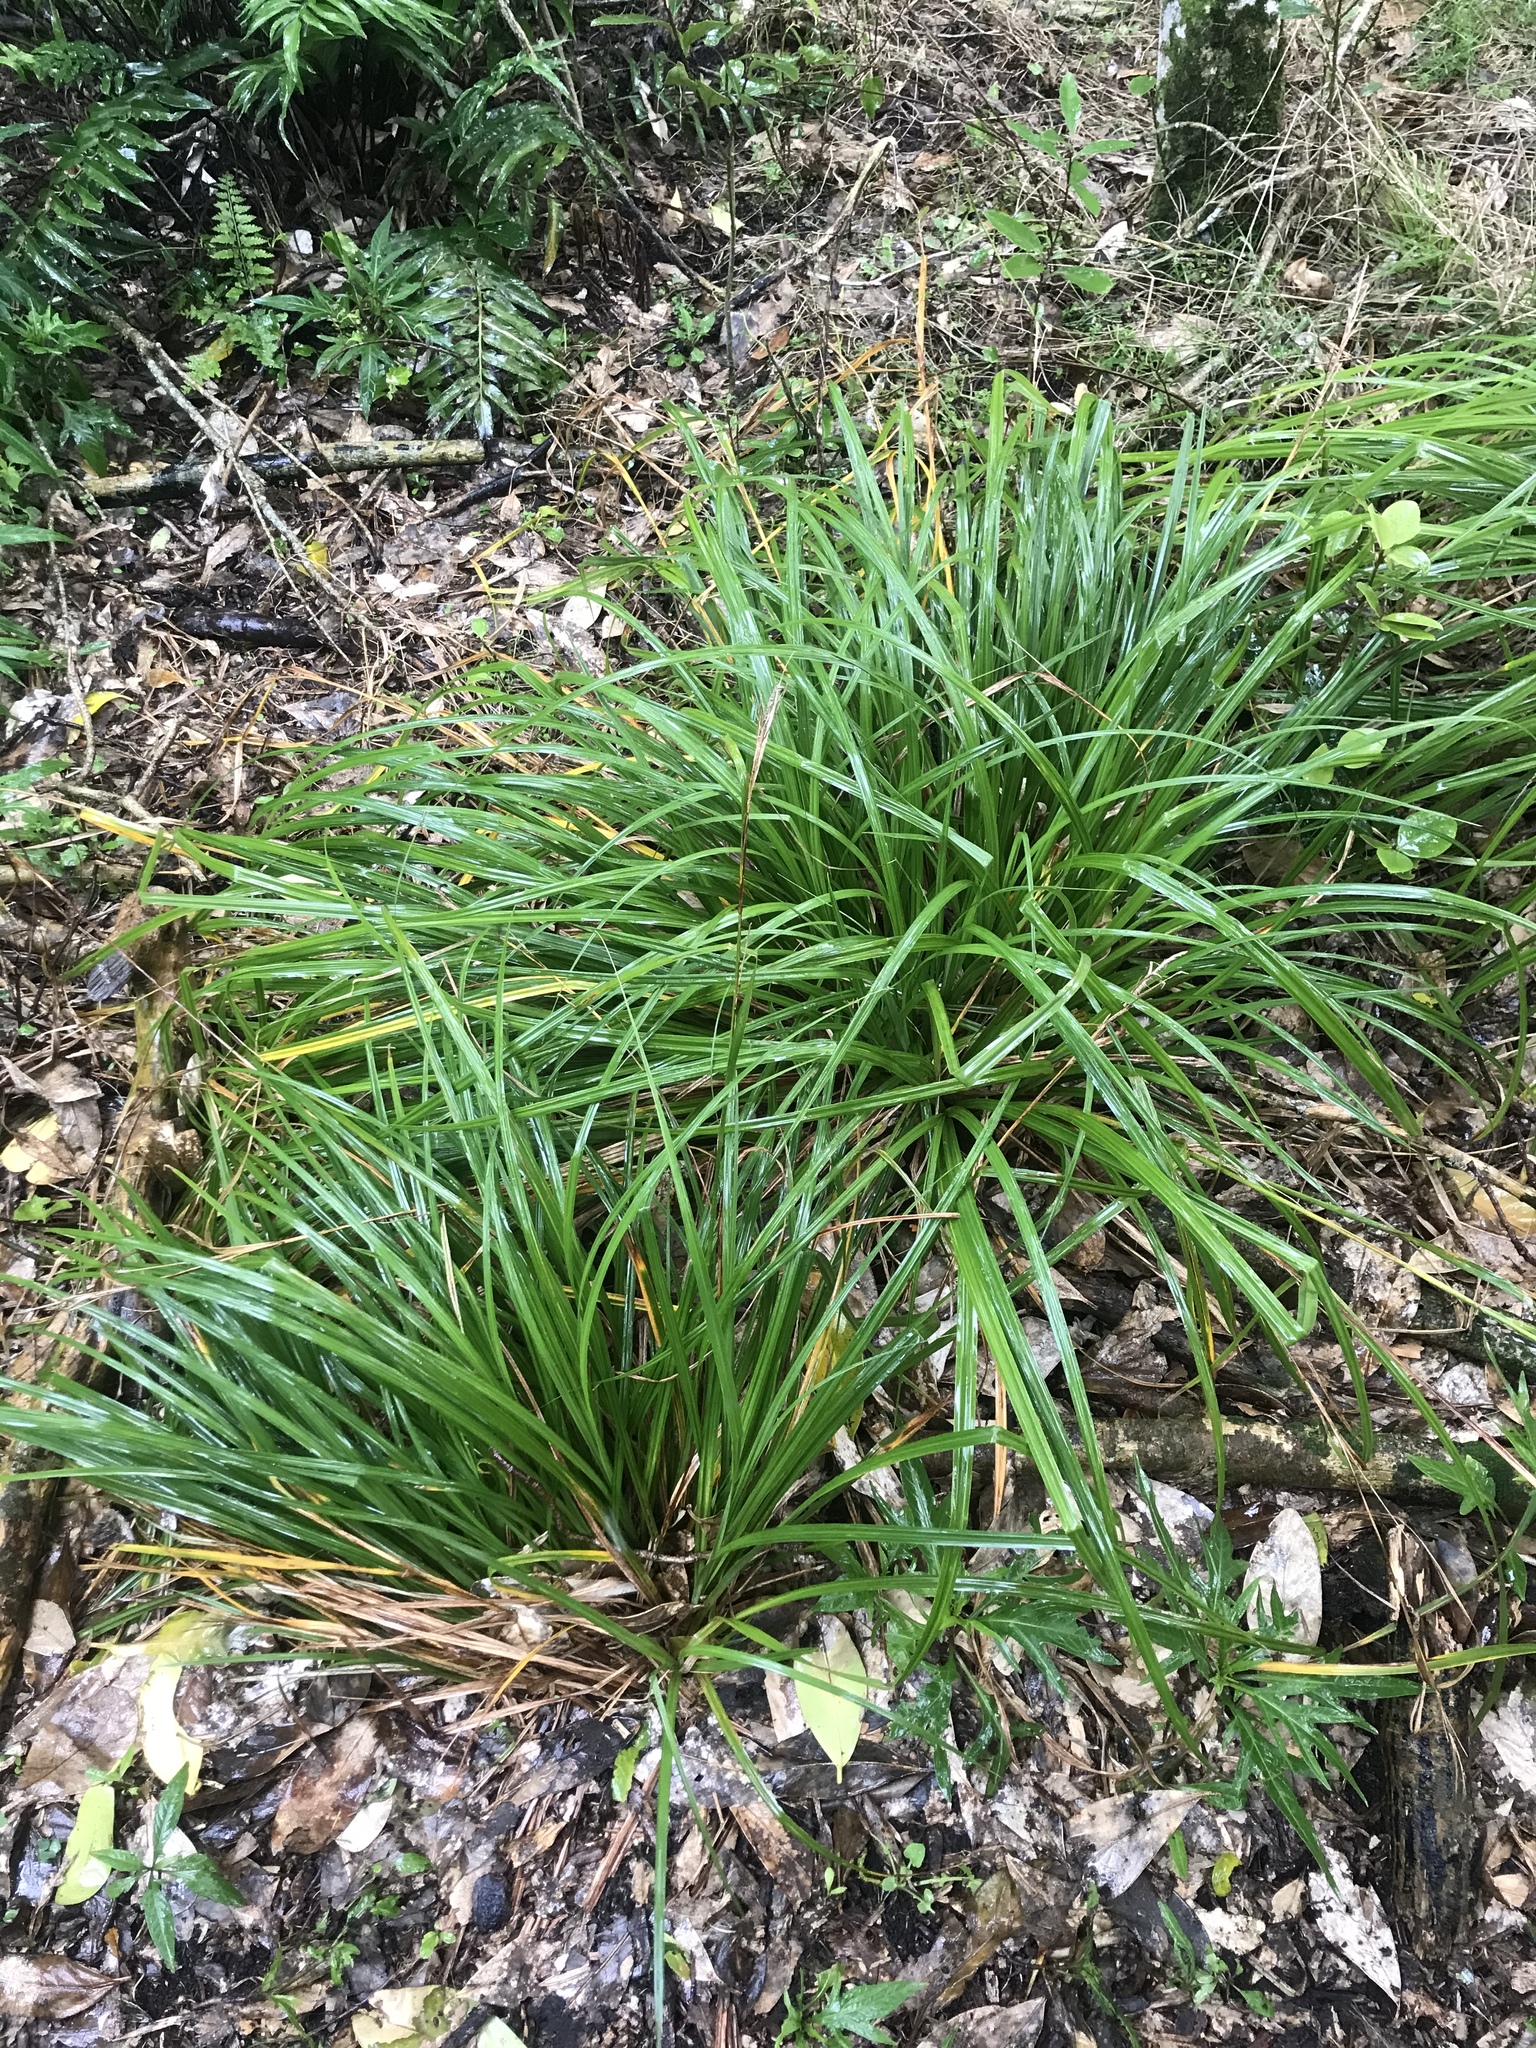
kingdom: Plantae
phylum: Tracheophyta
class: Liliopsida
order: Poales
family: Cyperaceae
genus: Carex
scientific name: Carex ventosa
